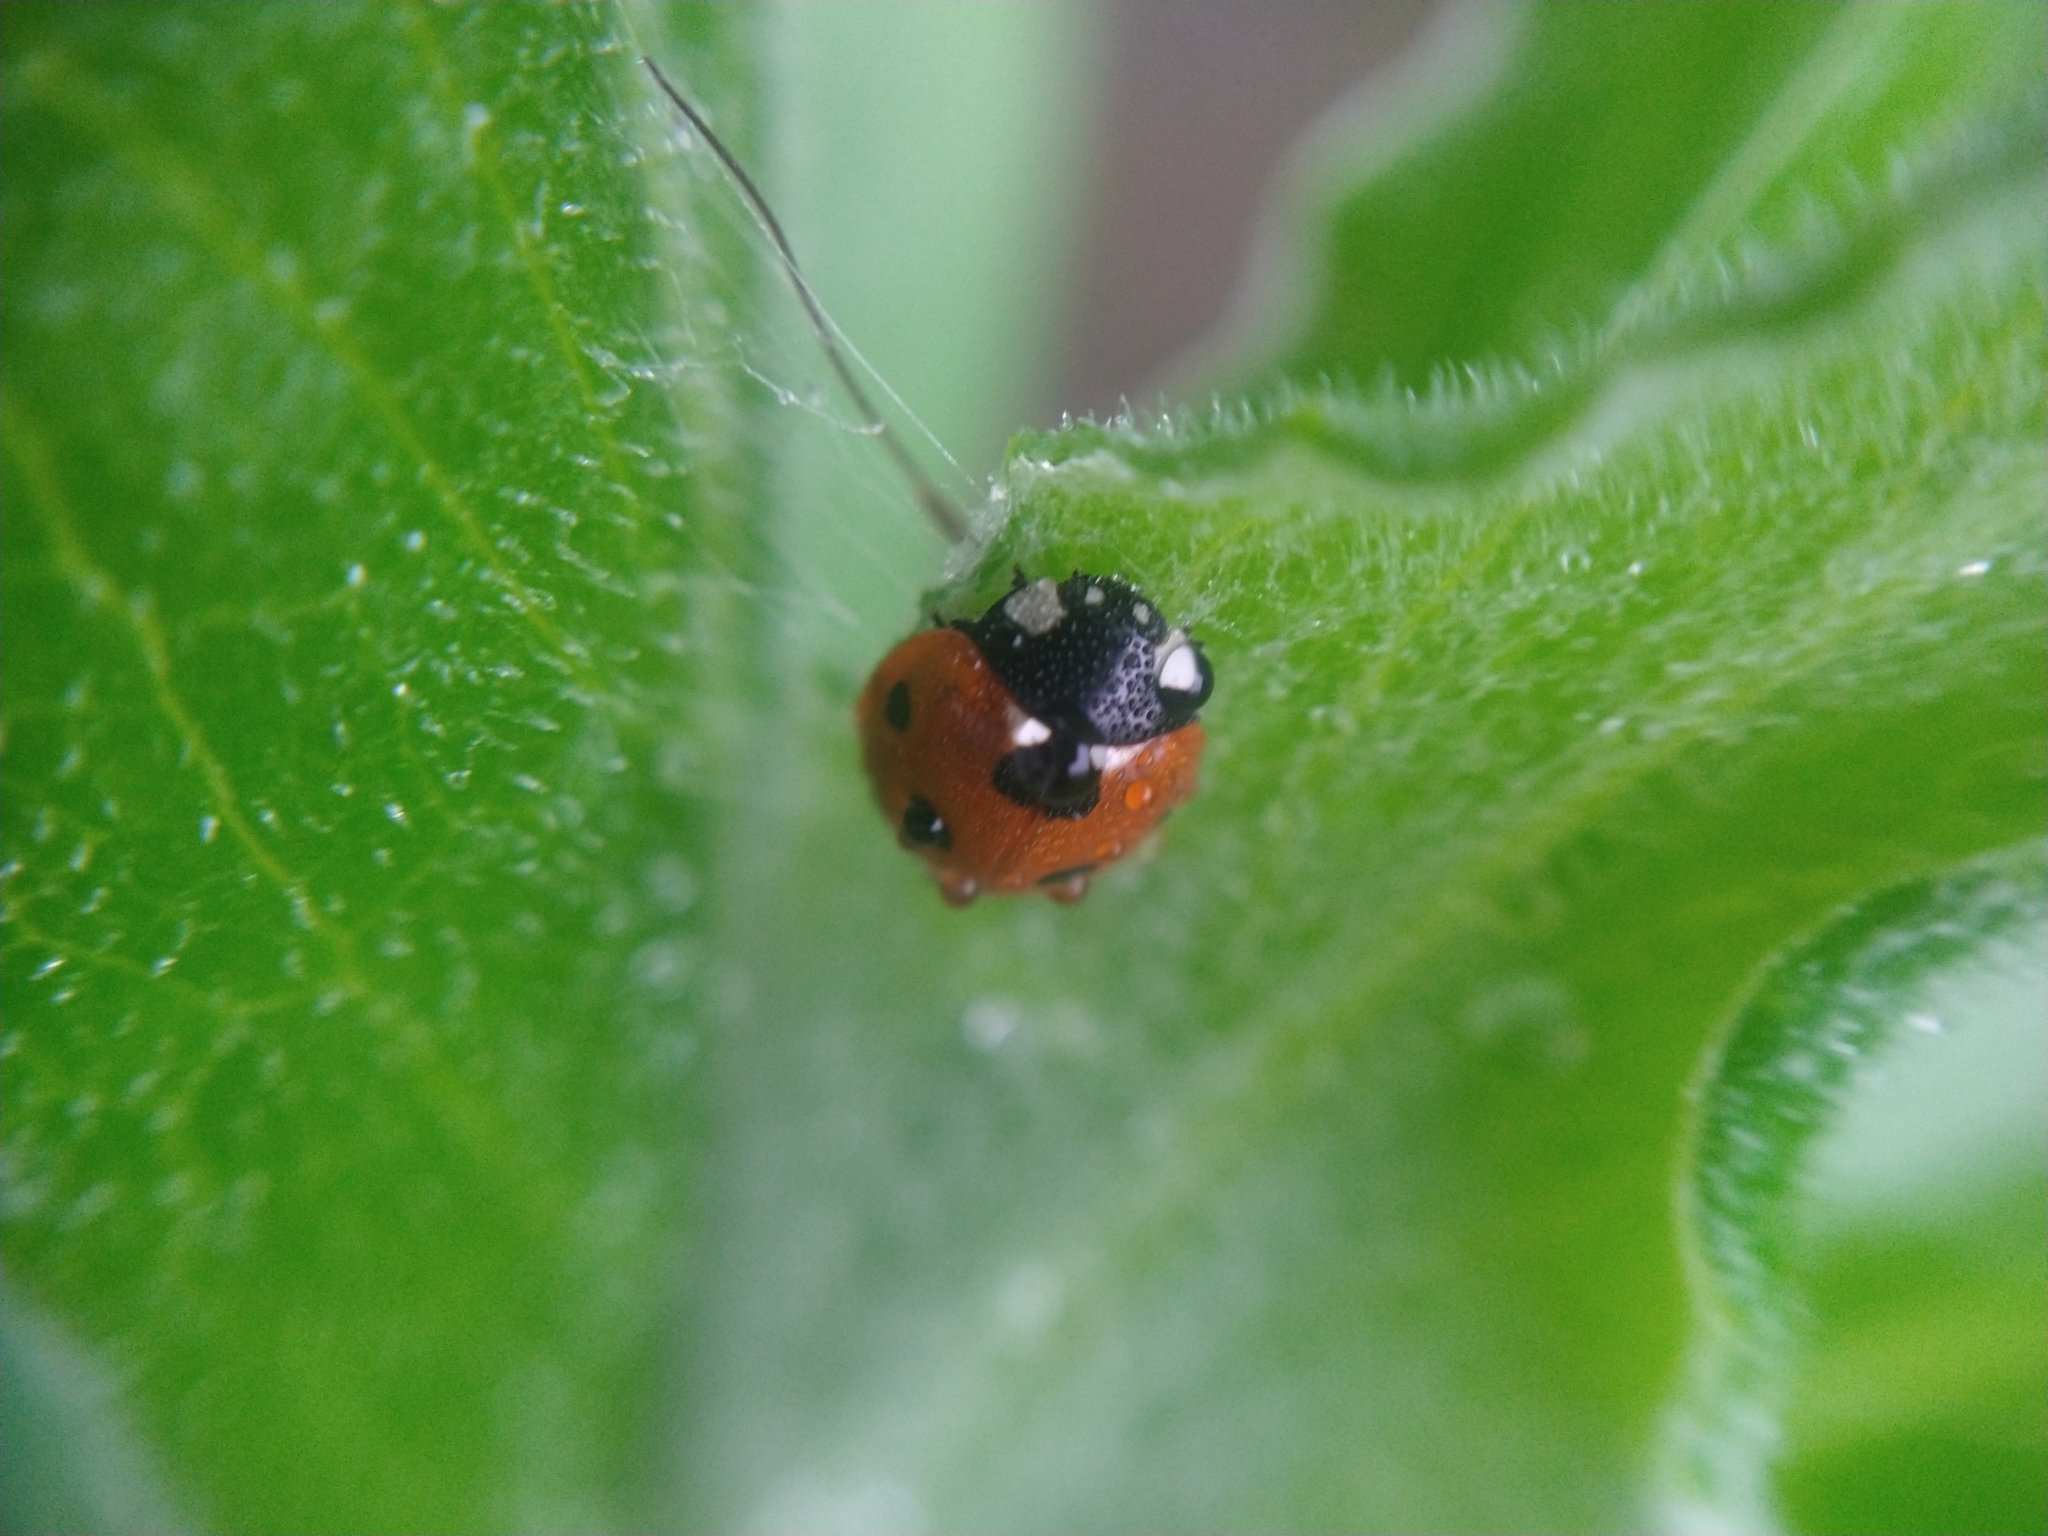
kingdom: Animalia
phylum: Arthropoda
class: Insecta
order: Coleoptera
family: Coccinellidae
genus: Coccinella
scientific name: Coccinella septempunctata
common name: Sevenspotted lady beetle
